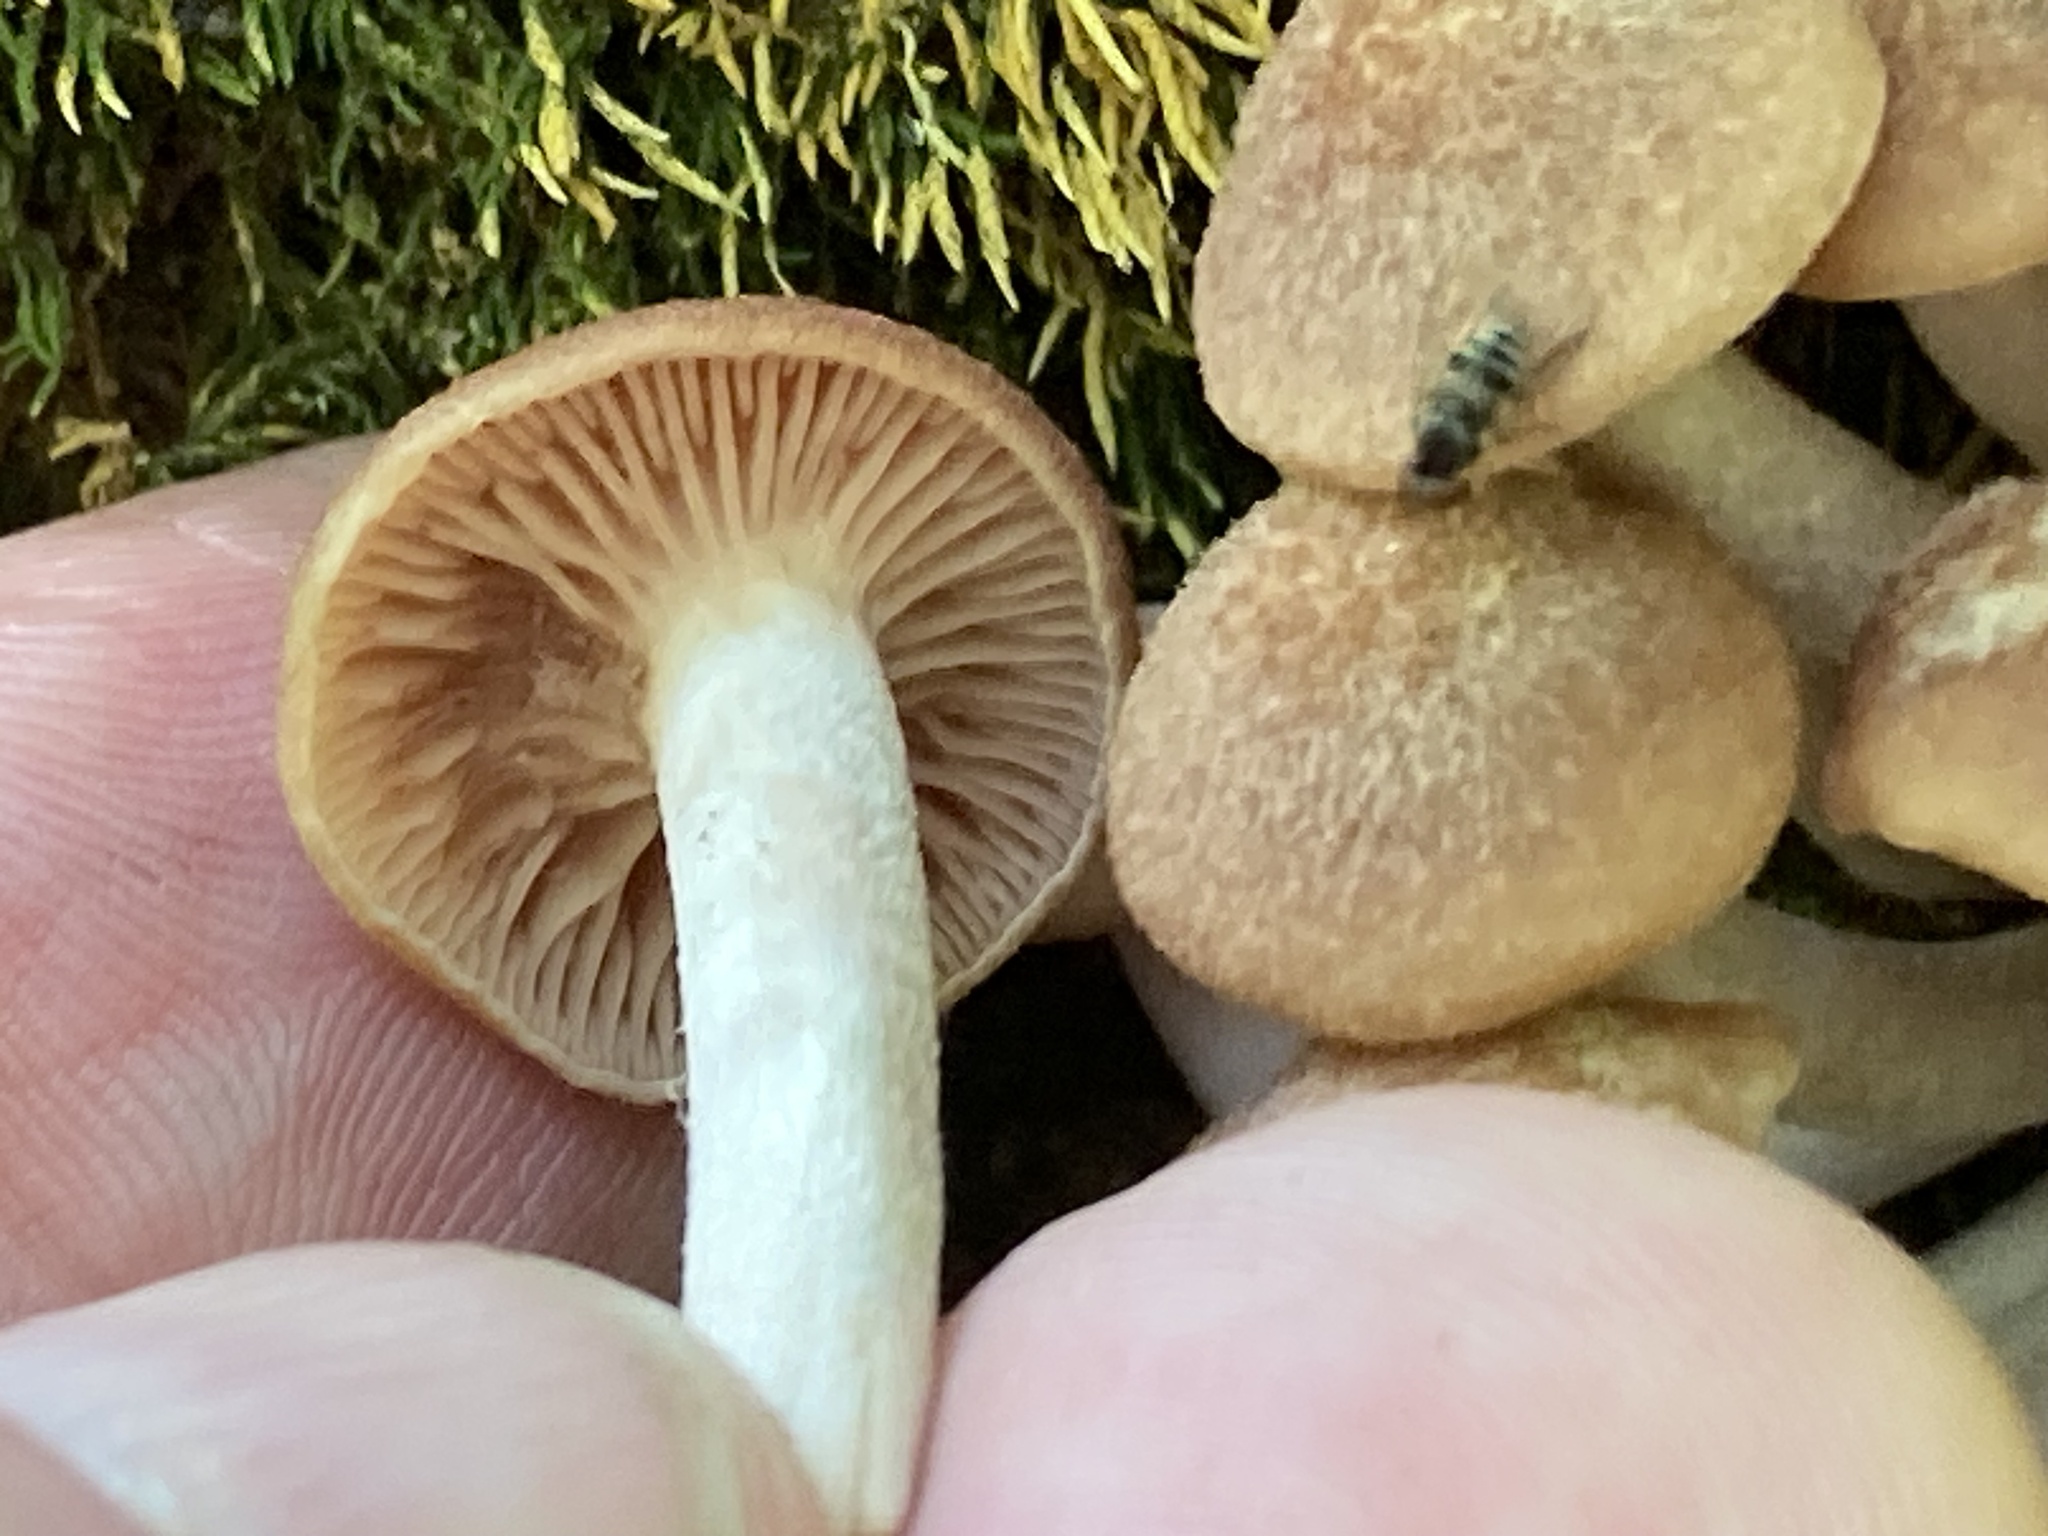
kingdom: Fungi
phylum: Basidiomycota
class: Agaricomycetes
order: Agaricales
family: Physalacriaceae
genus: Desarmillaria
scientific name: Desarmillaria caespitosa
